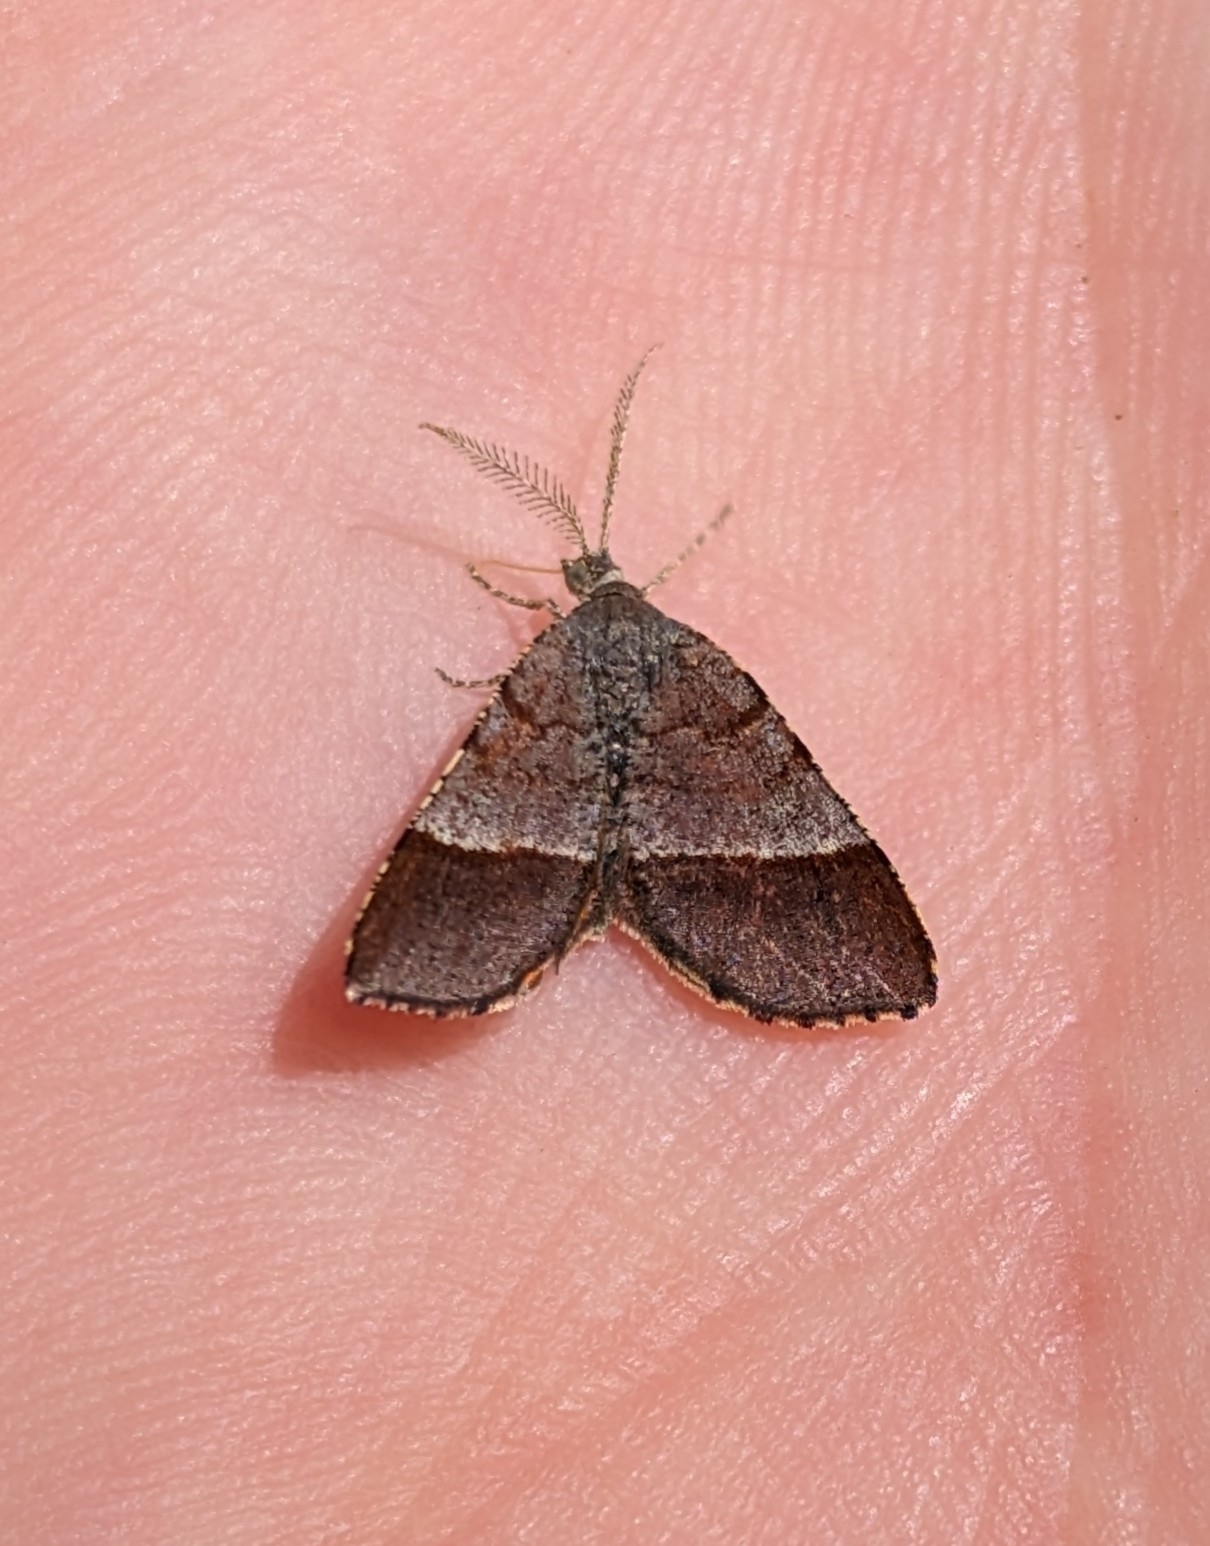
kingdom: Animalia
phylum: Arthropoda
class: Insecta
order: Lepidoptera
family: Geometridae
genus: Mellilla
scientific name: Mellilla xanthometata
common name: Orange wing moth
